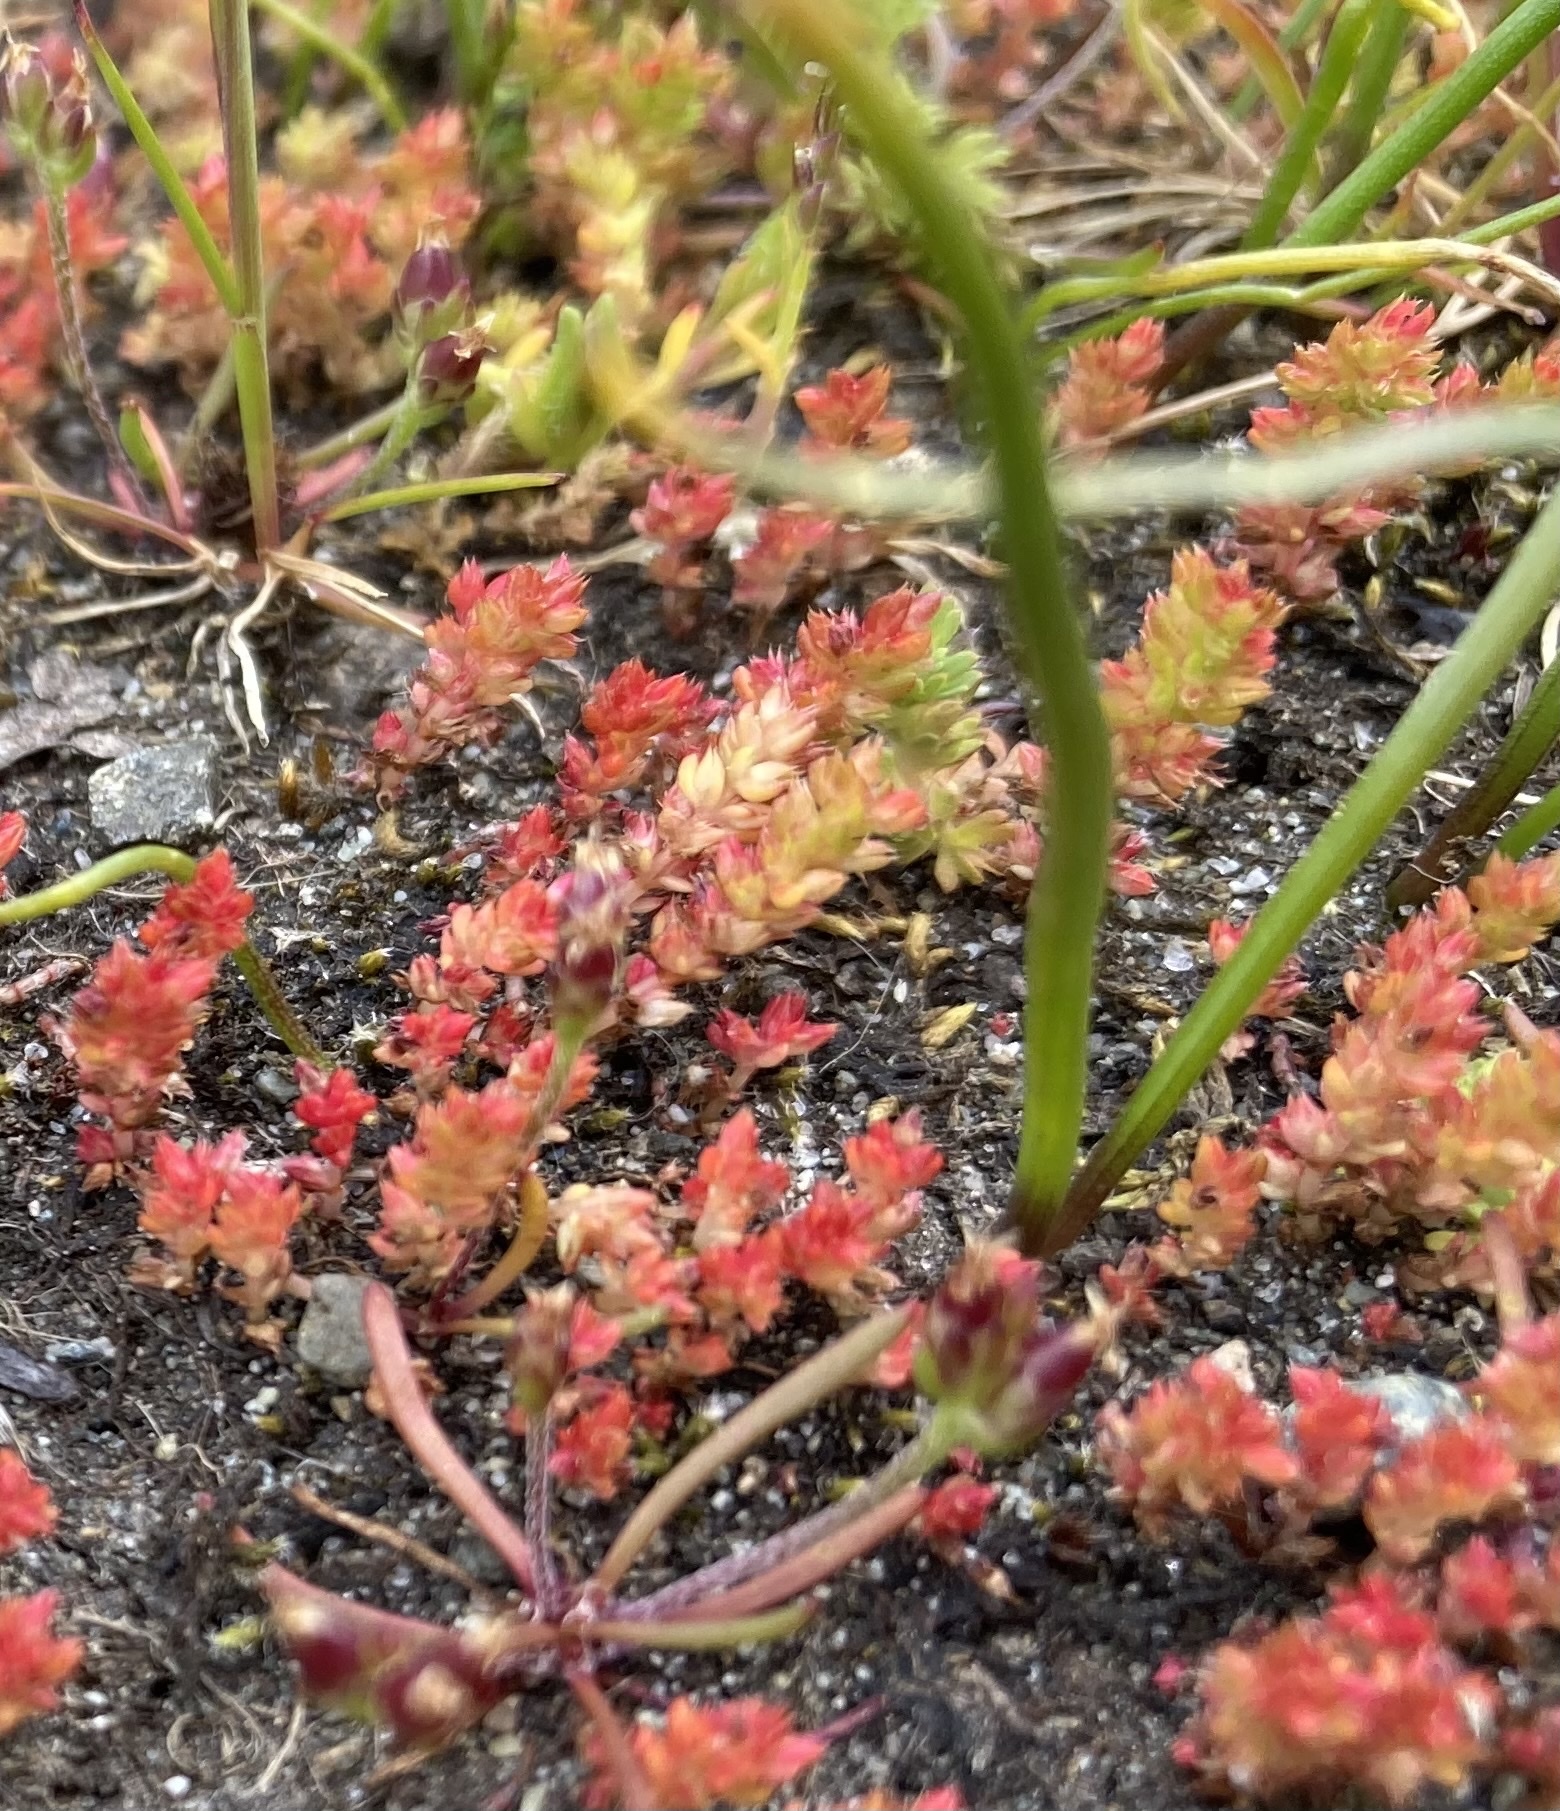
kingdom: Plantae
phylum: Tracheophyta
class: Magnoliopsida
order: Saxifragales
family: Crassulaceae
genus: Crassula
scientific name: Crassula tillaea
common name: Mossy stonecrop
